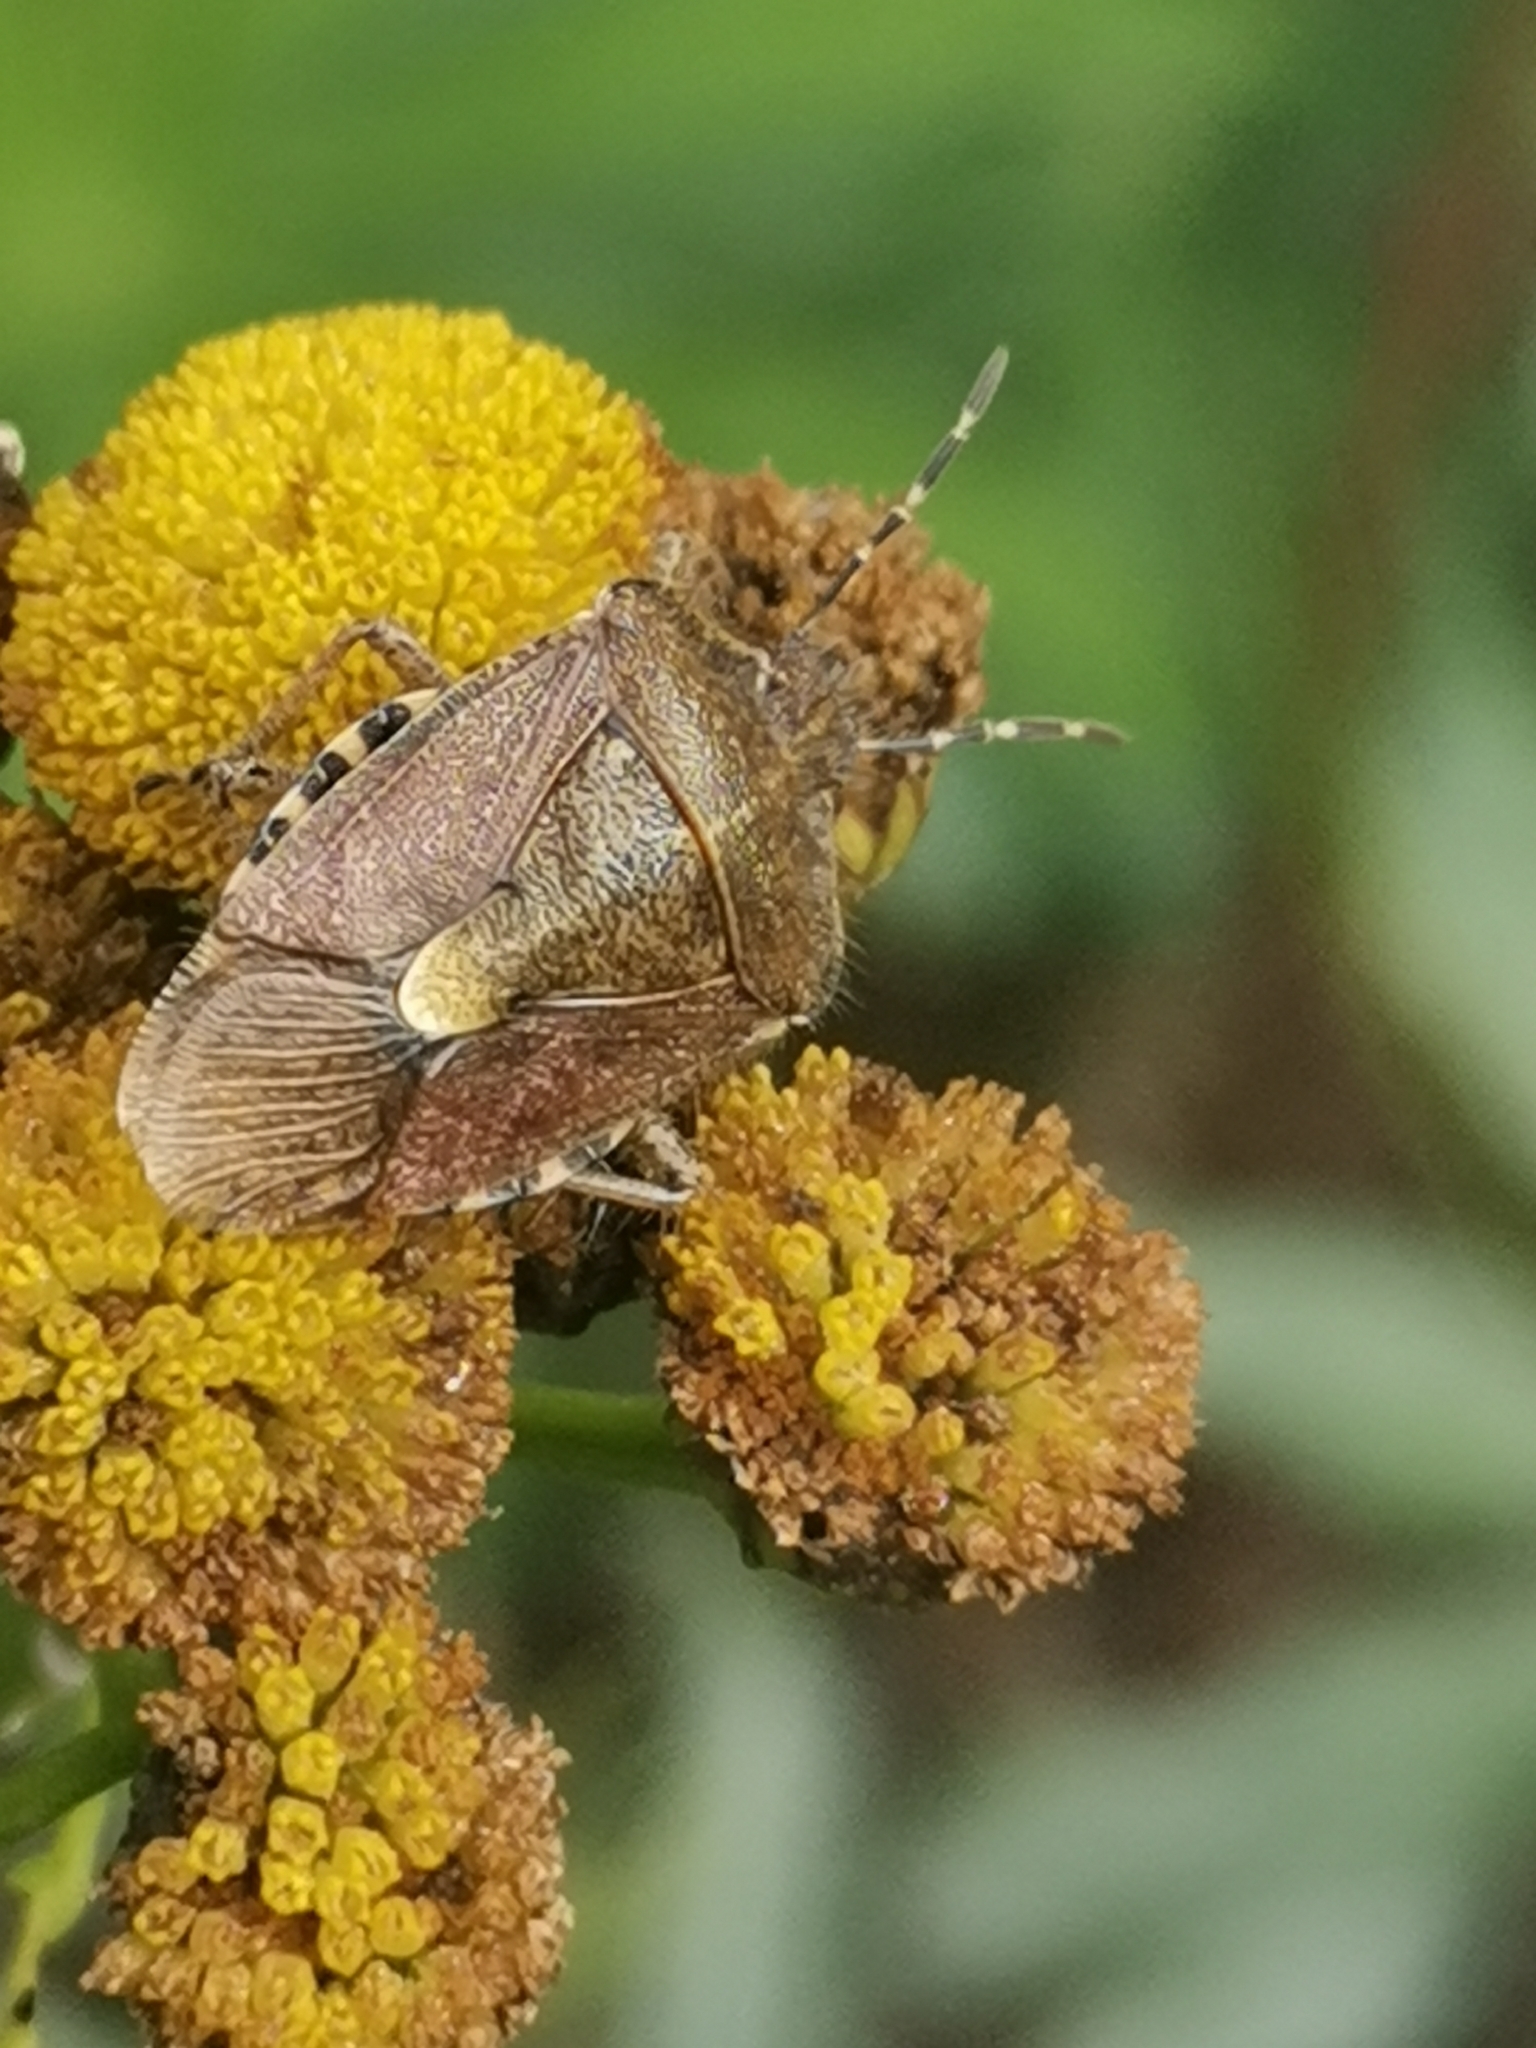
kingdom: Animalia
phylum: Arthropoda
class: Insecta
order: Hemiptera
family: Pentatomidae
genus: Dolycoris
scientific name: Dolycoris baccarum
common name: Sloe bug
